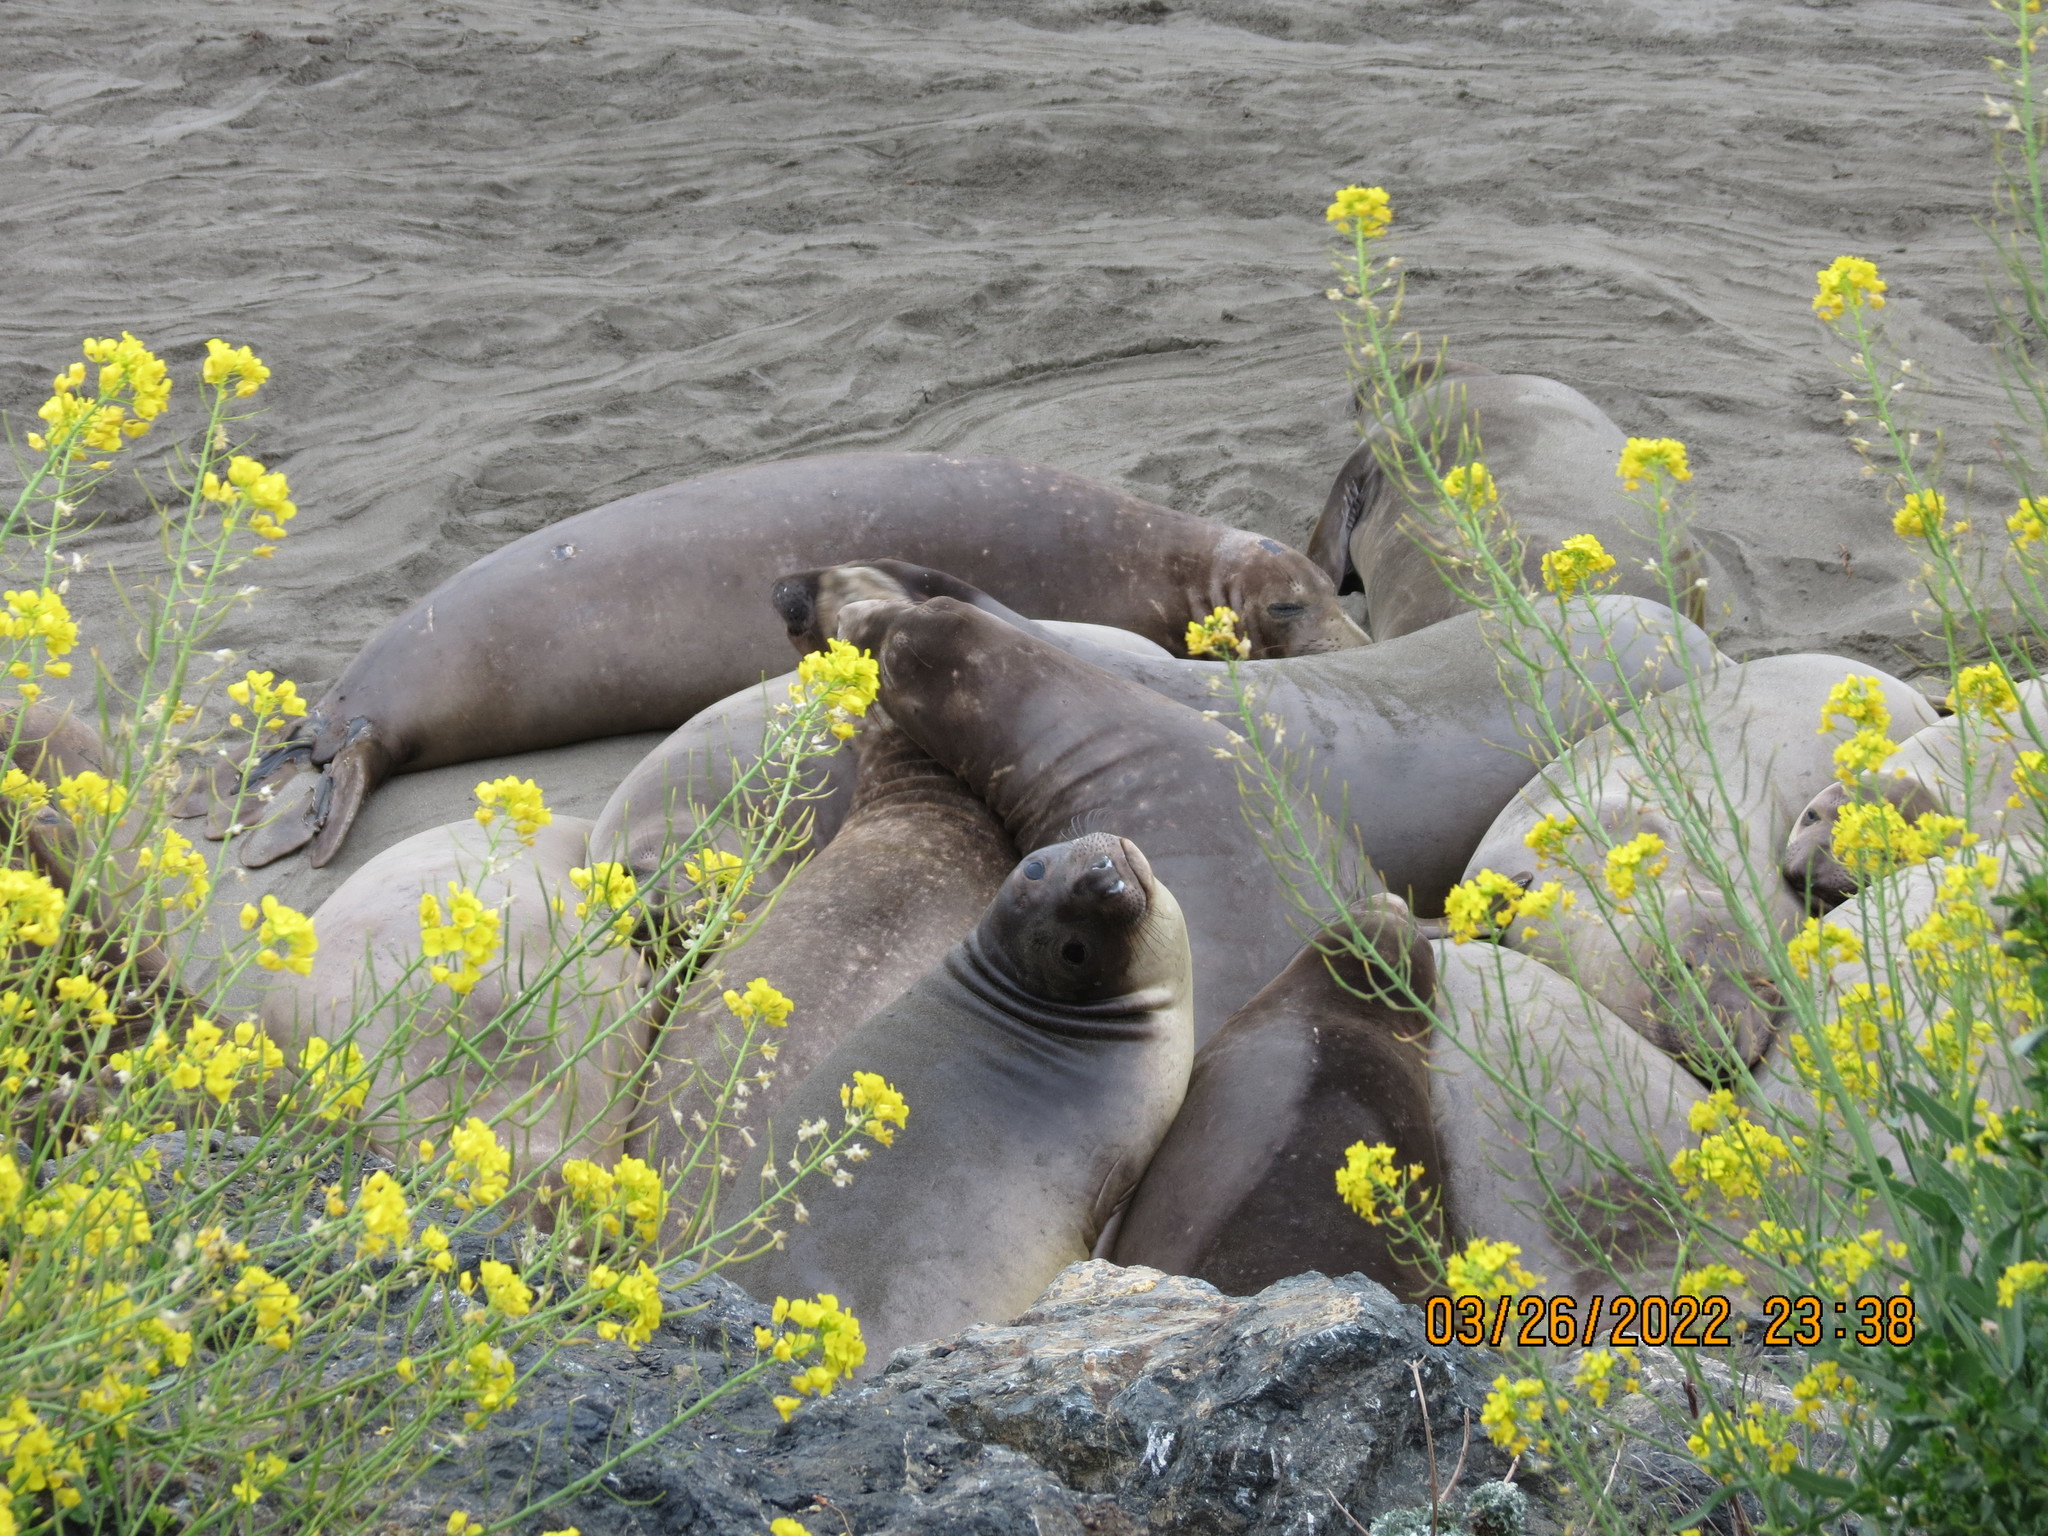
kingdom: Animalia
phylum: Chordata
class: Mammalia
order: Carnivora
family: Phocidae
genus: Mirounga
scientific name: Mirounga angustirostris
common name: Northern elephant seal
